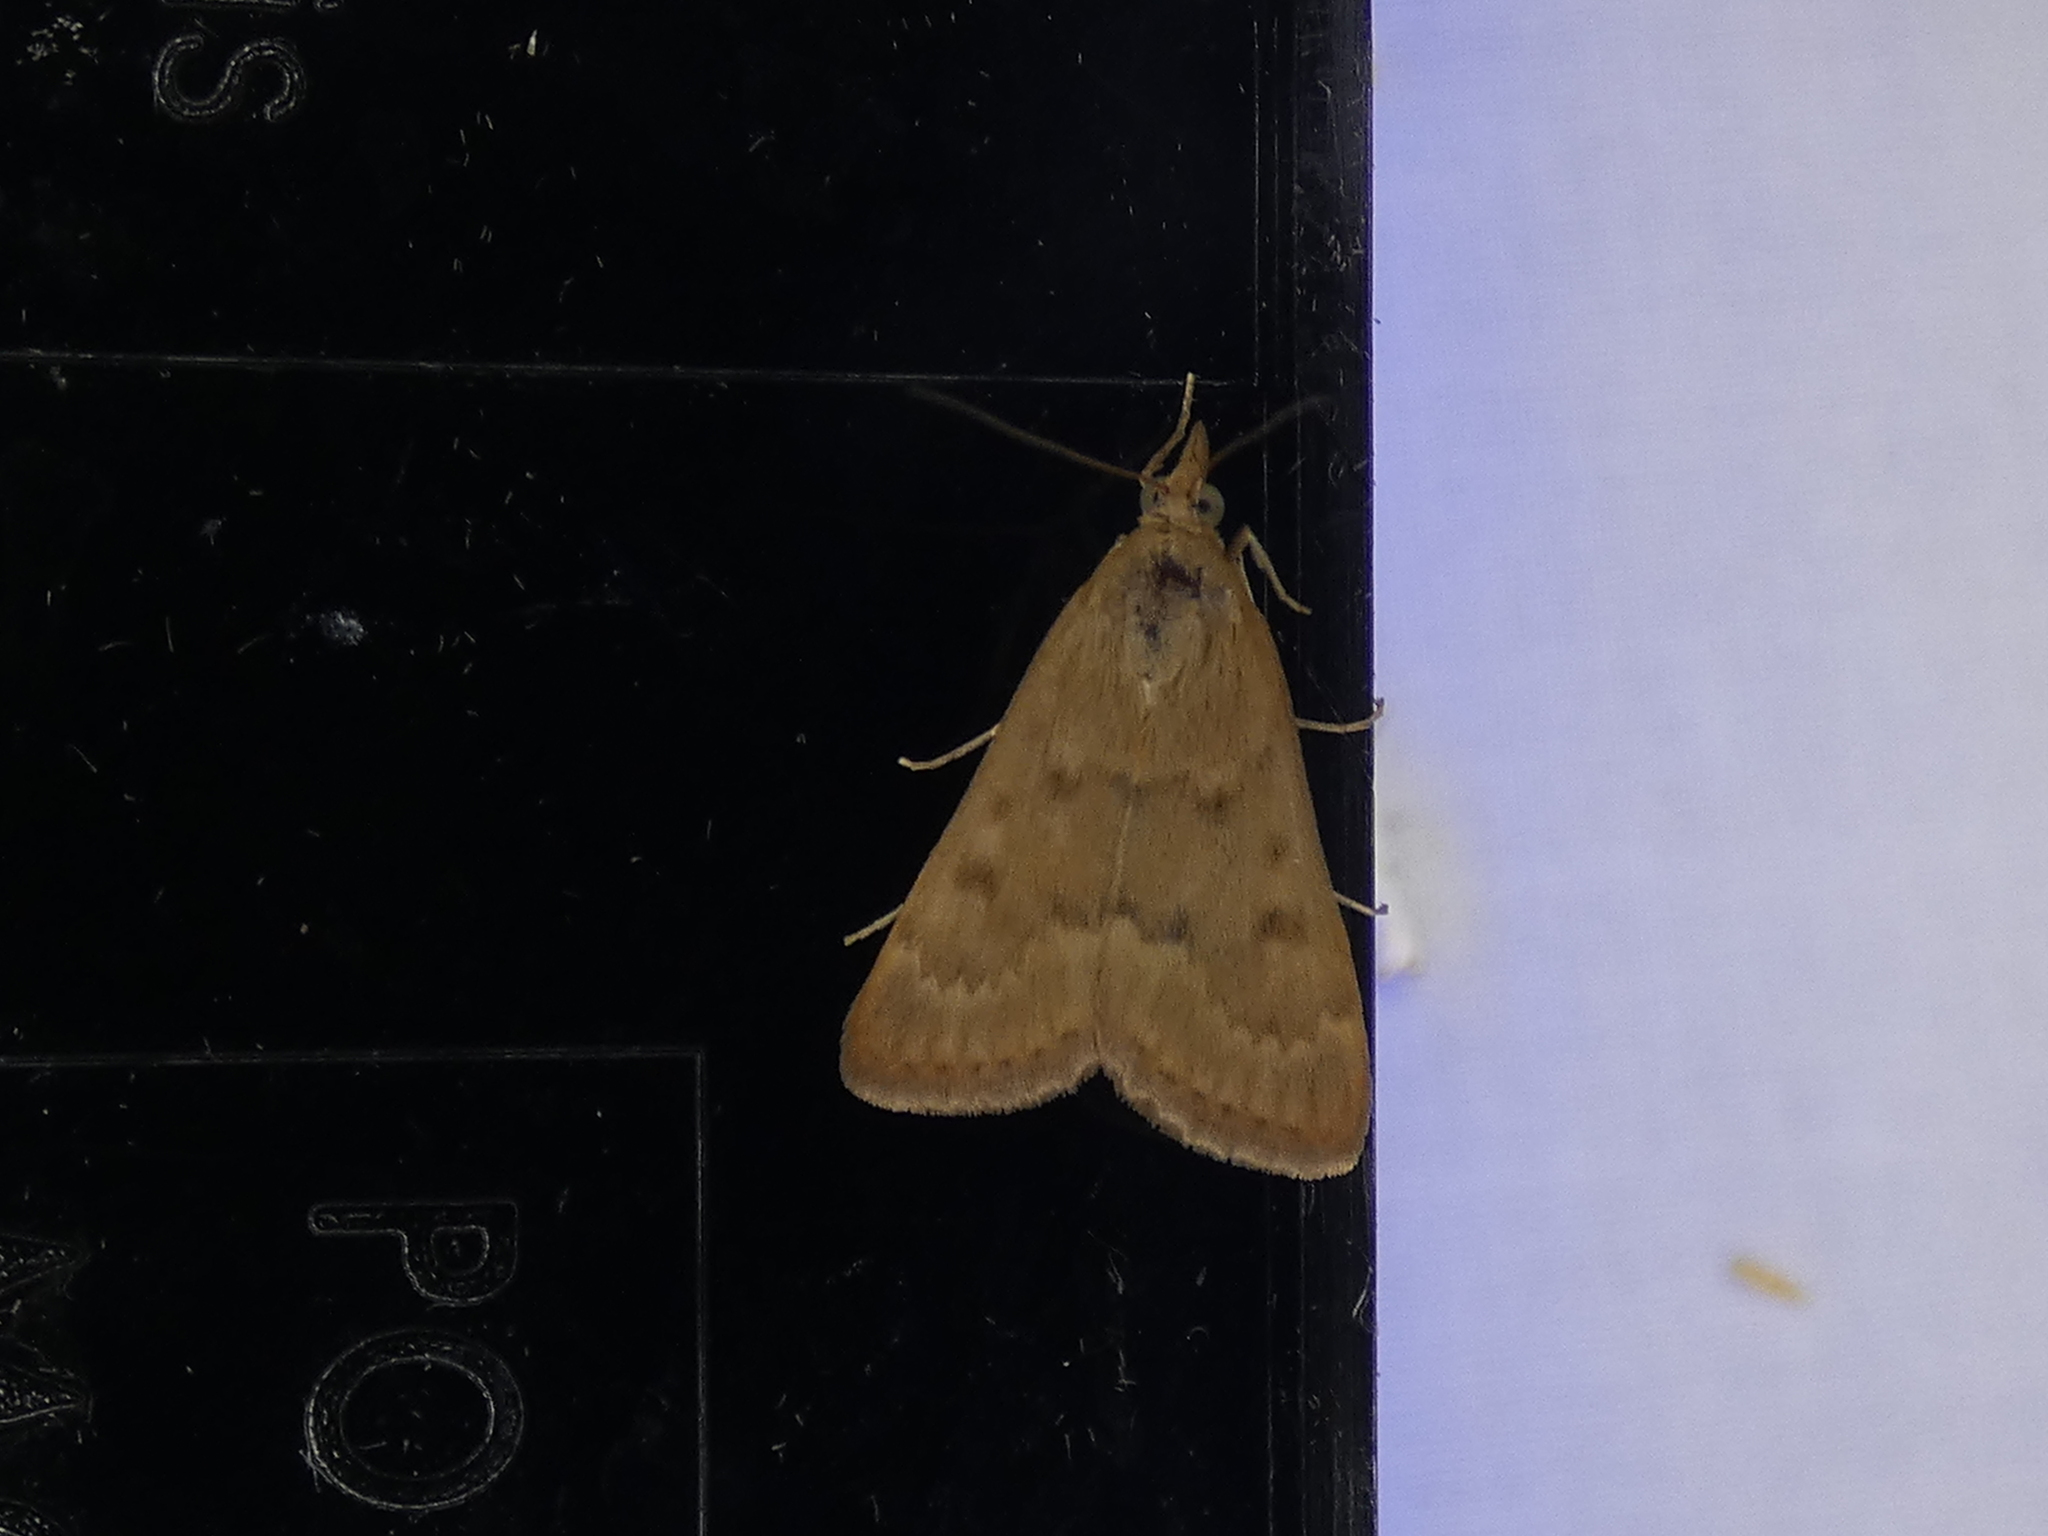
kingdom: Animalia
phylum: Arthropoda
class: Insecta
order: Lepidoptera
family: Crambidae
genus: Achyra
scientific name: Achyra rantalis
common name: Garden webworm
